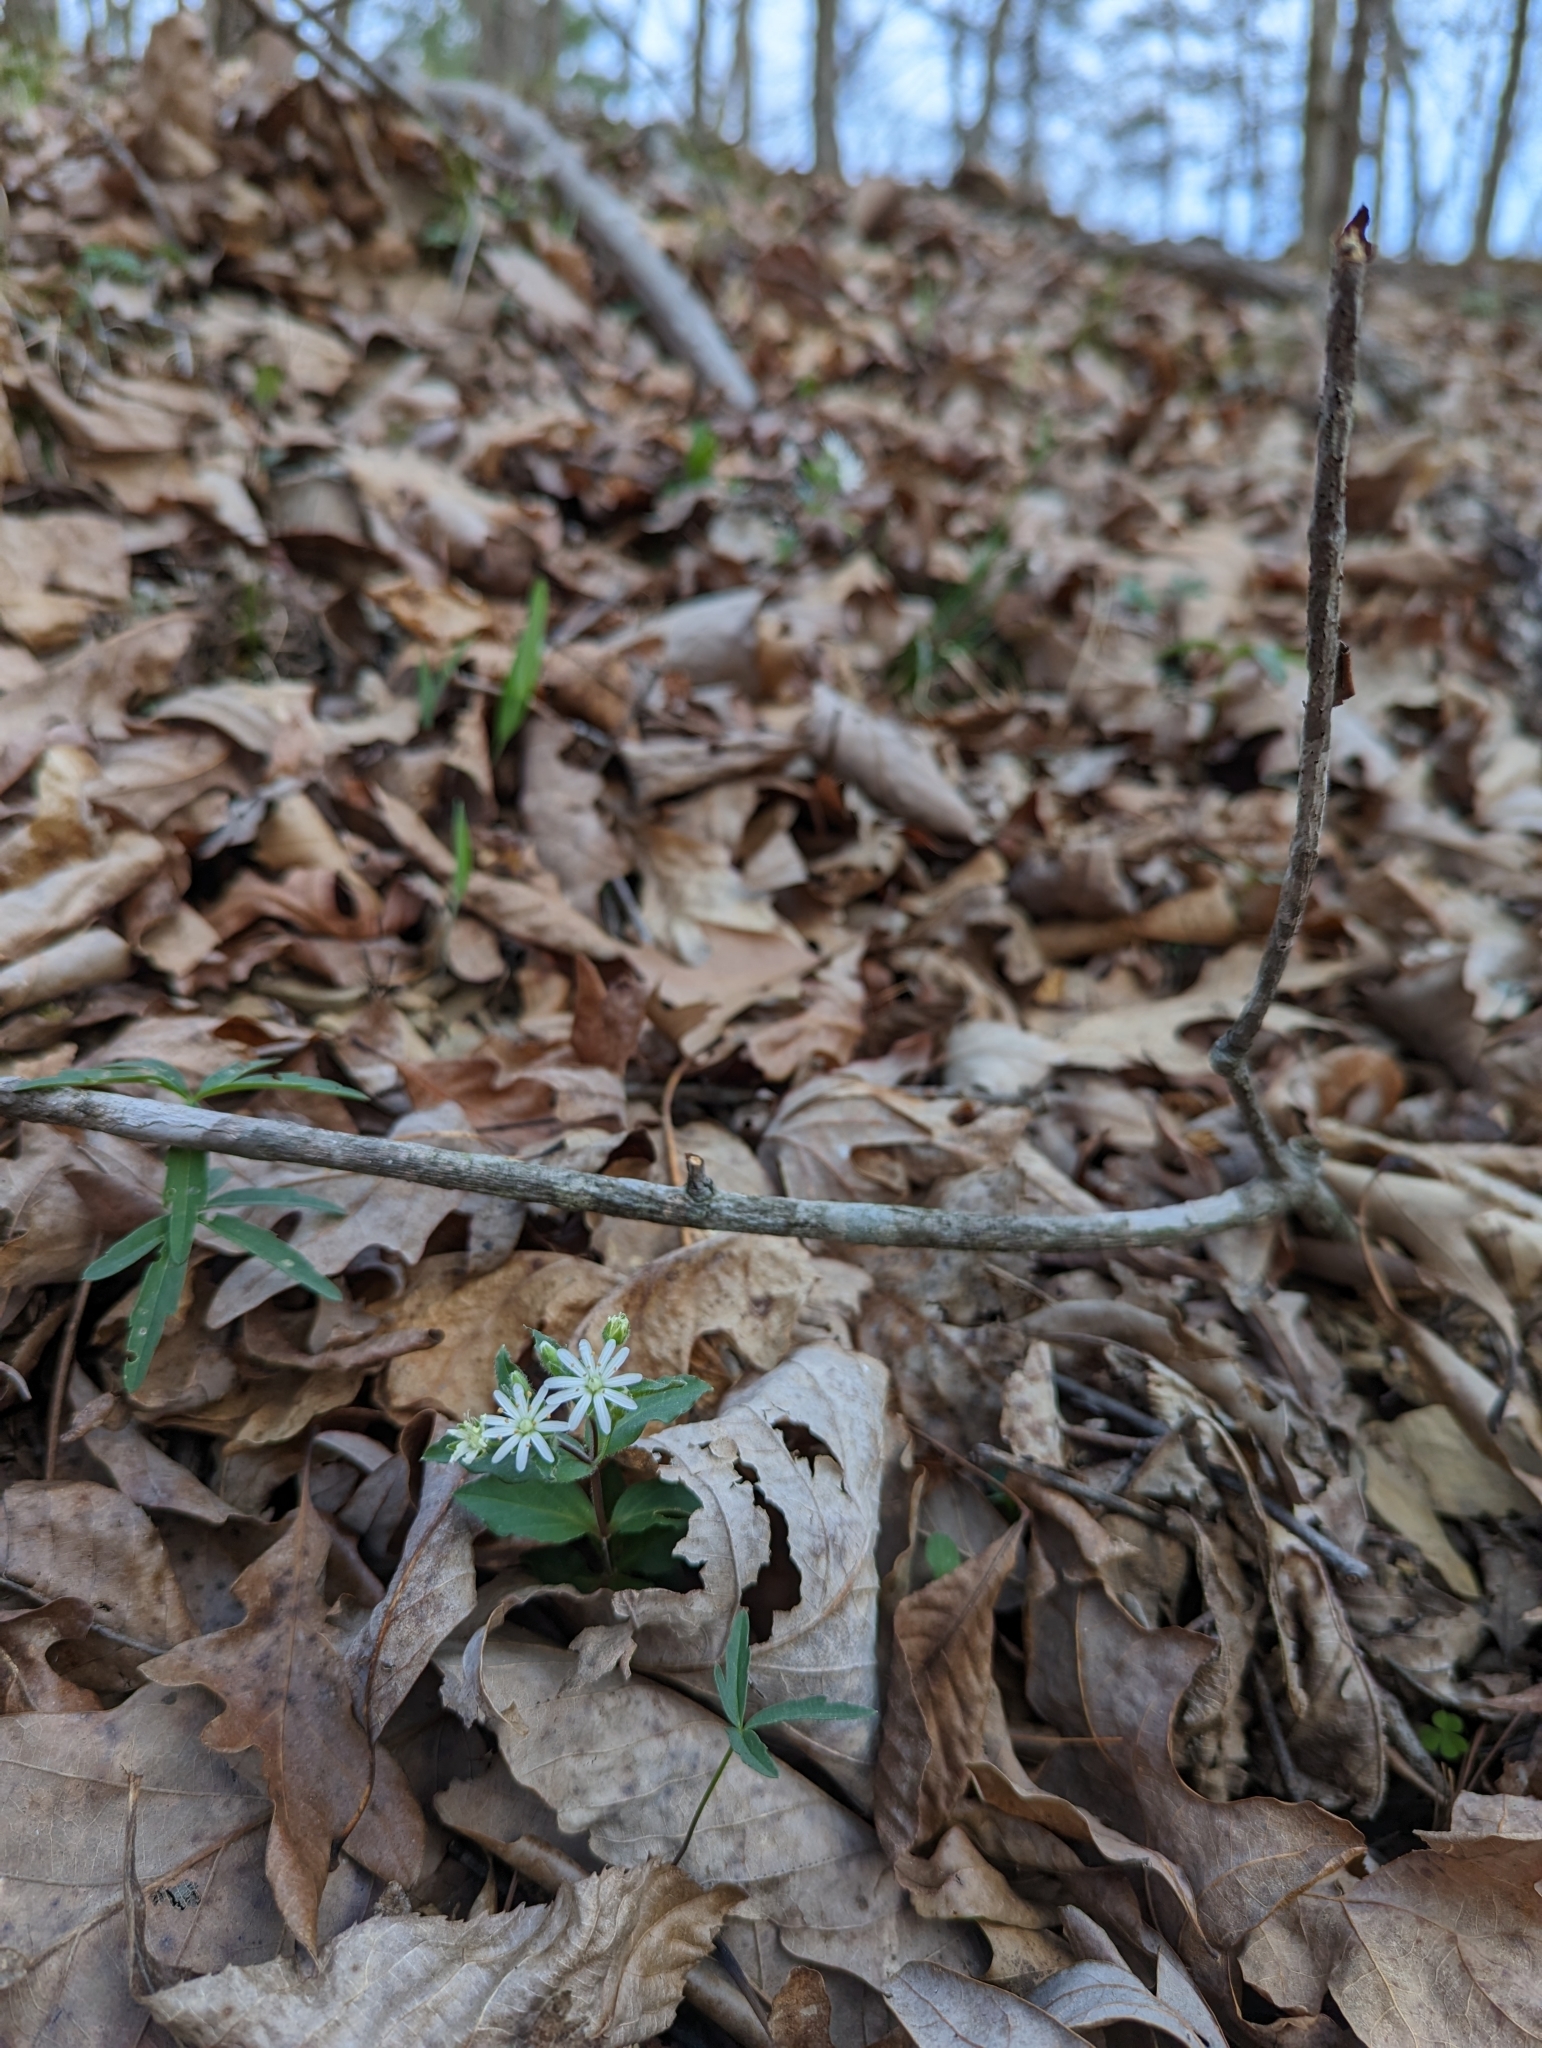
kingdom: Plantae
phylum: Tracheophyta
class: Magnoliopsida
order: Caryophyllales
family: Caryophyllaceae
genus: Stellaria
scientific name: Stellaria pubera
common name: Star chickweed
